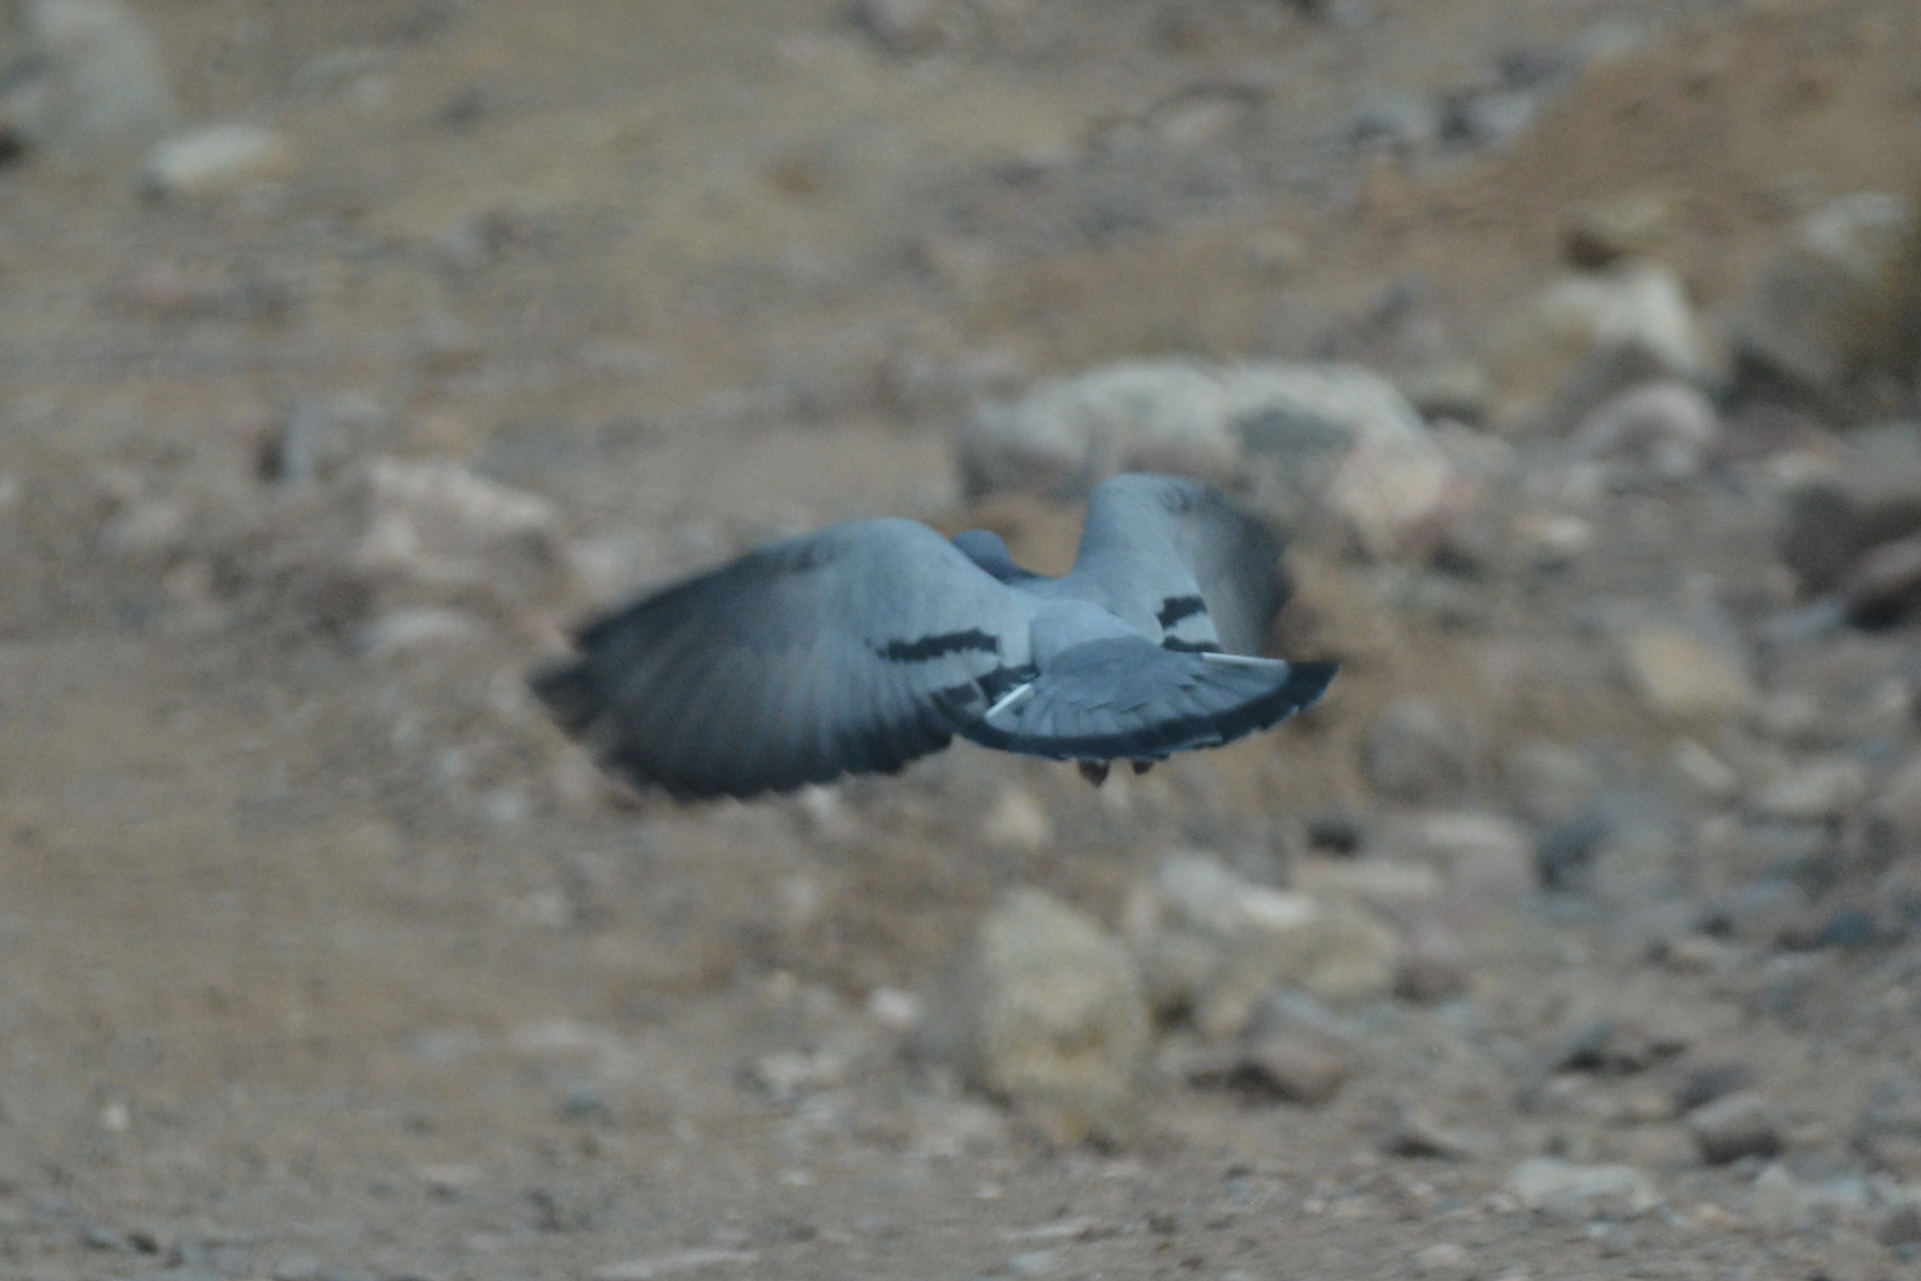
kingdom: Animalia
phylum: Chordata
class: Aves
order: Columbiformes
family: Columbidae
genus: Columba
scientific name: Columba livia
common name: Rock pigeon
